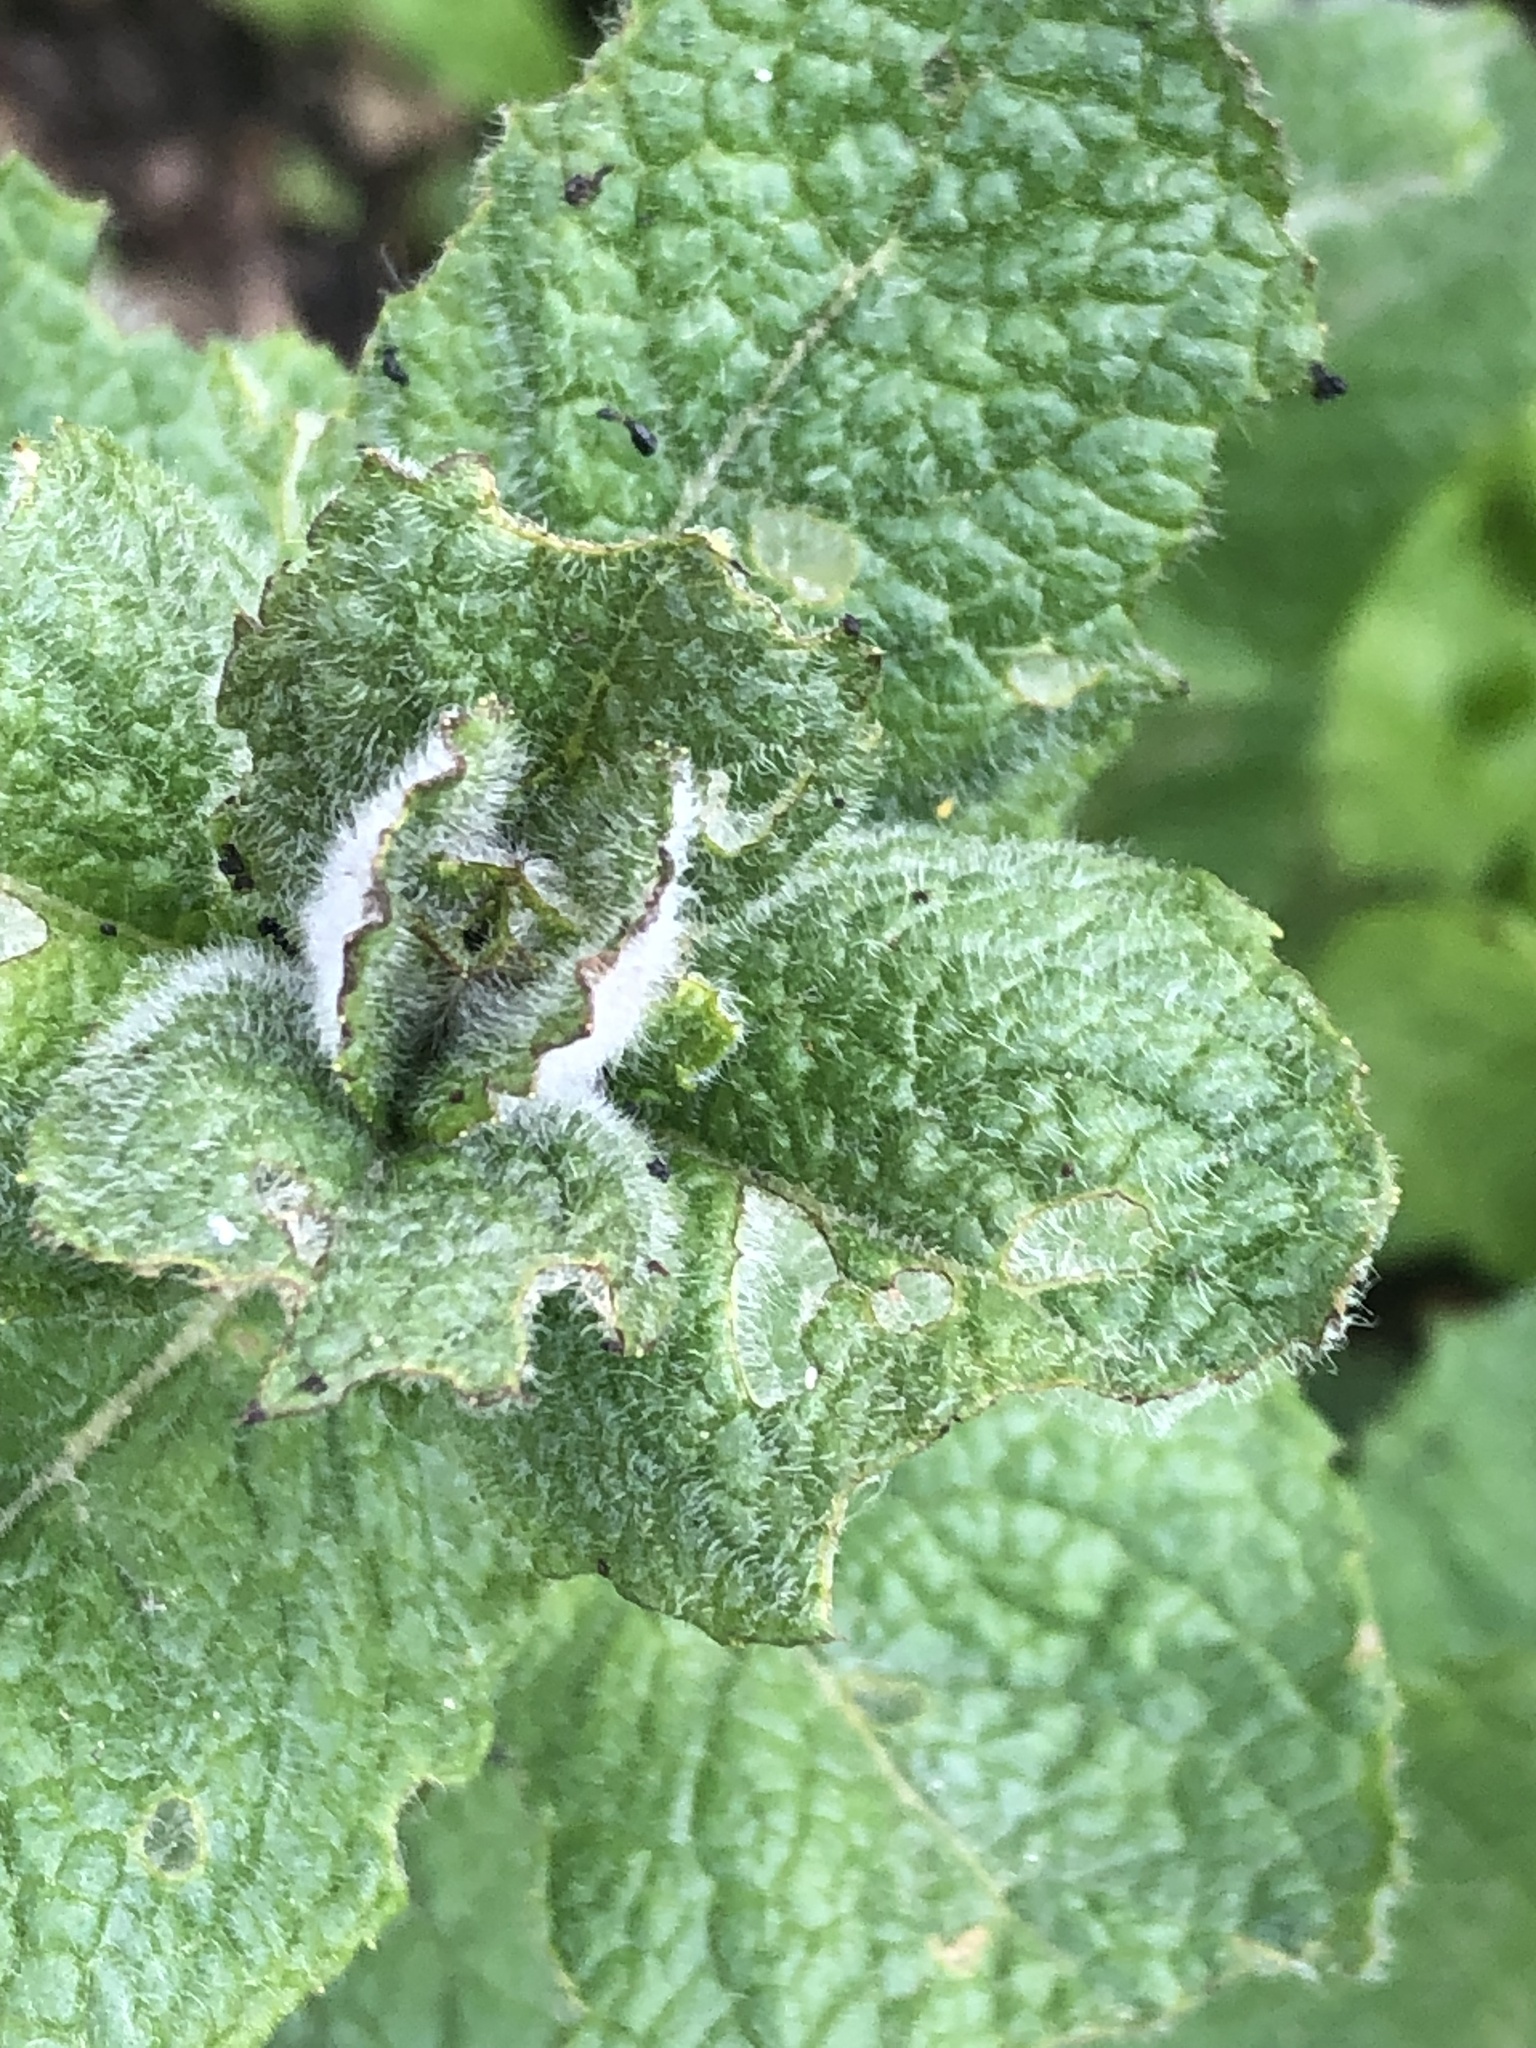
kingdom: Animalia
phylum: Arthropoda
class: Insecta
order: Coleoptera
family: Chrysomelidae
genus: Chrysolina
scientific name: Chrysolina coerulans
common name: Blue mint beetle
